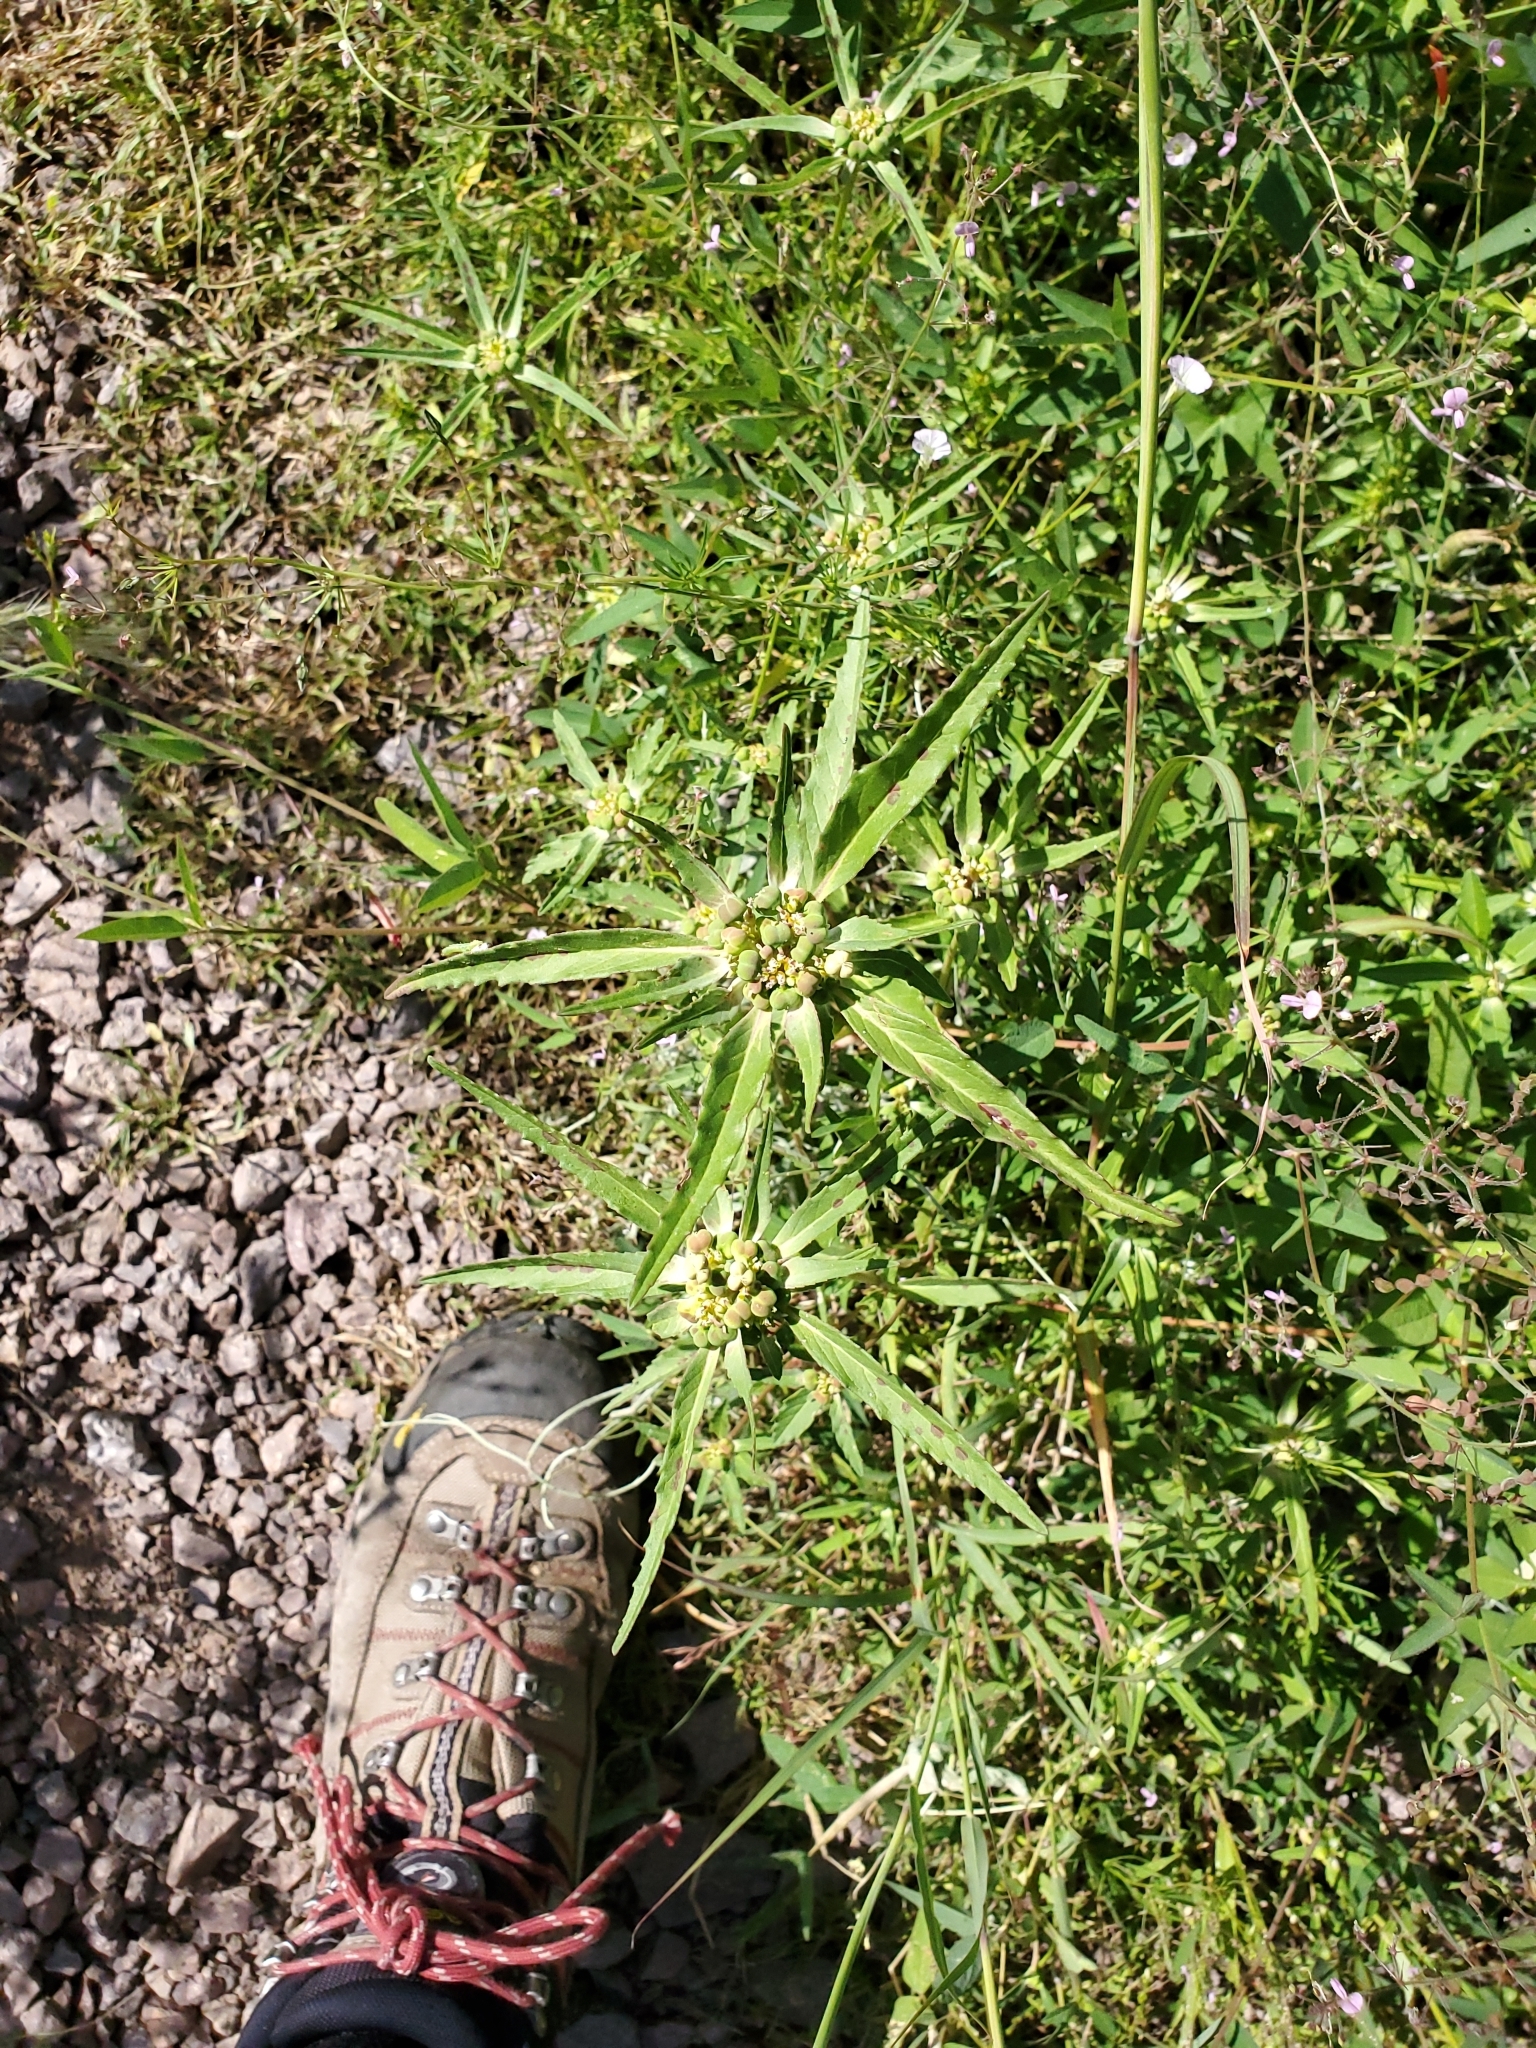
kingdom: Plantae
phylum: Tracheophyta
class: Magnoliopsida
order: Malpighiales
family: Euphorbiaceae
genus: Euphorbia
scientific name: Euphorbia davidii
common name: David's spurge
